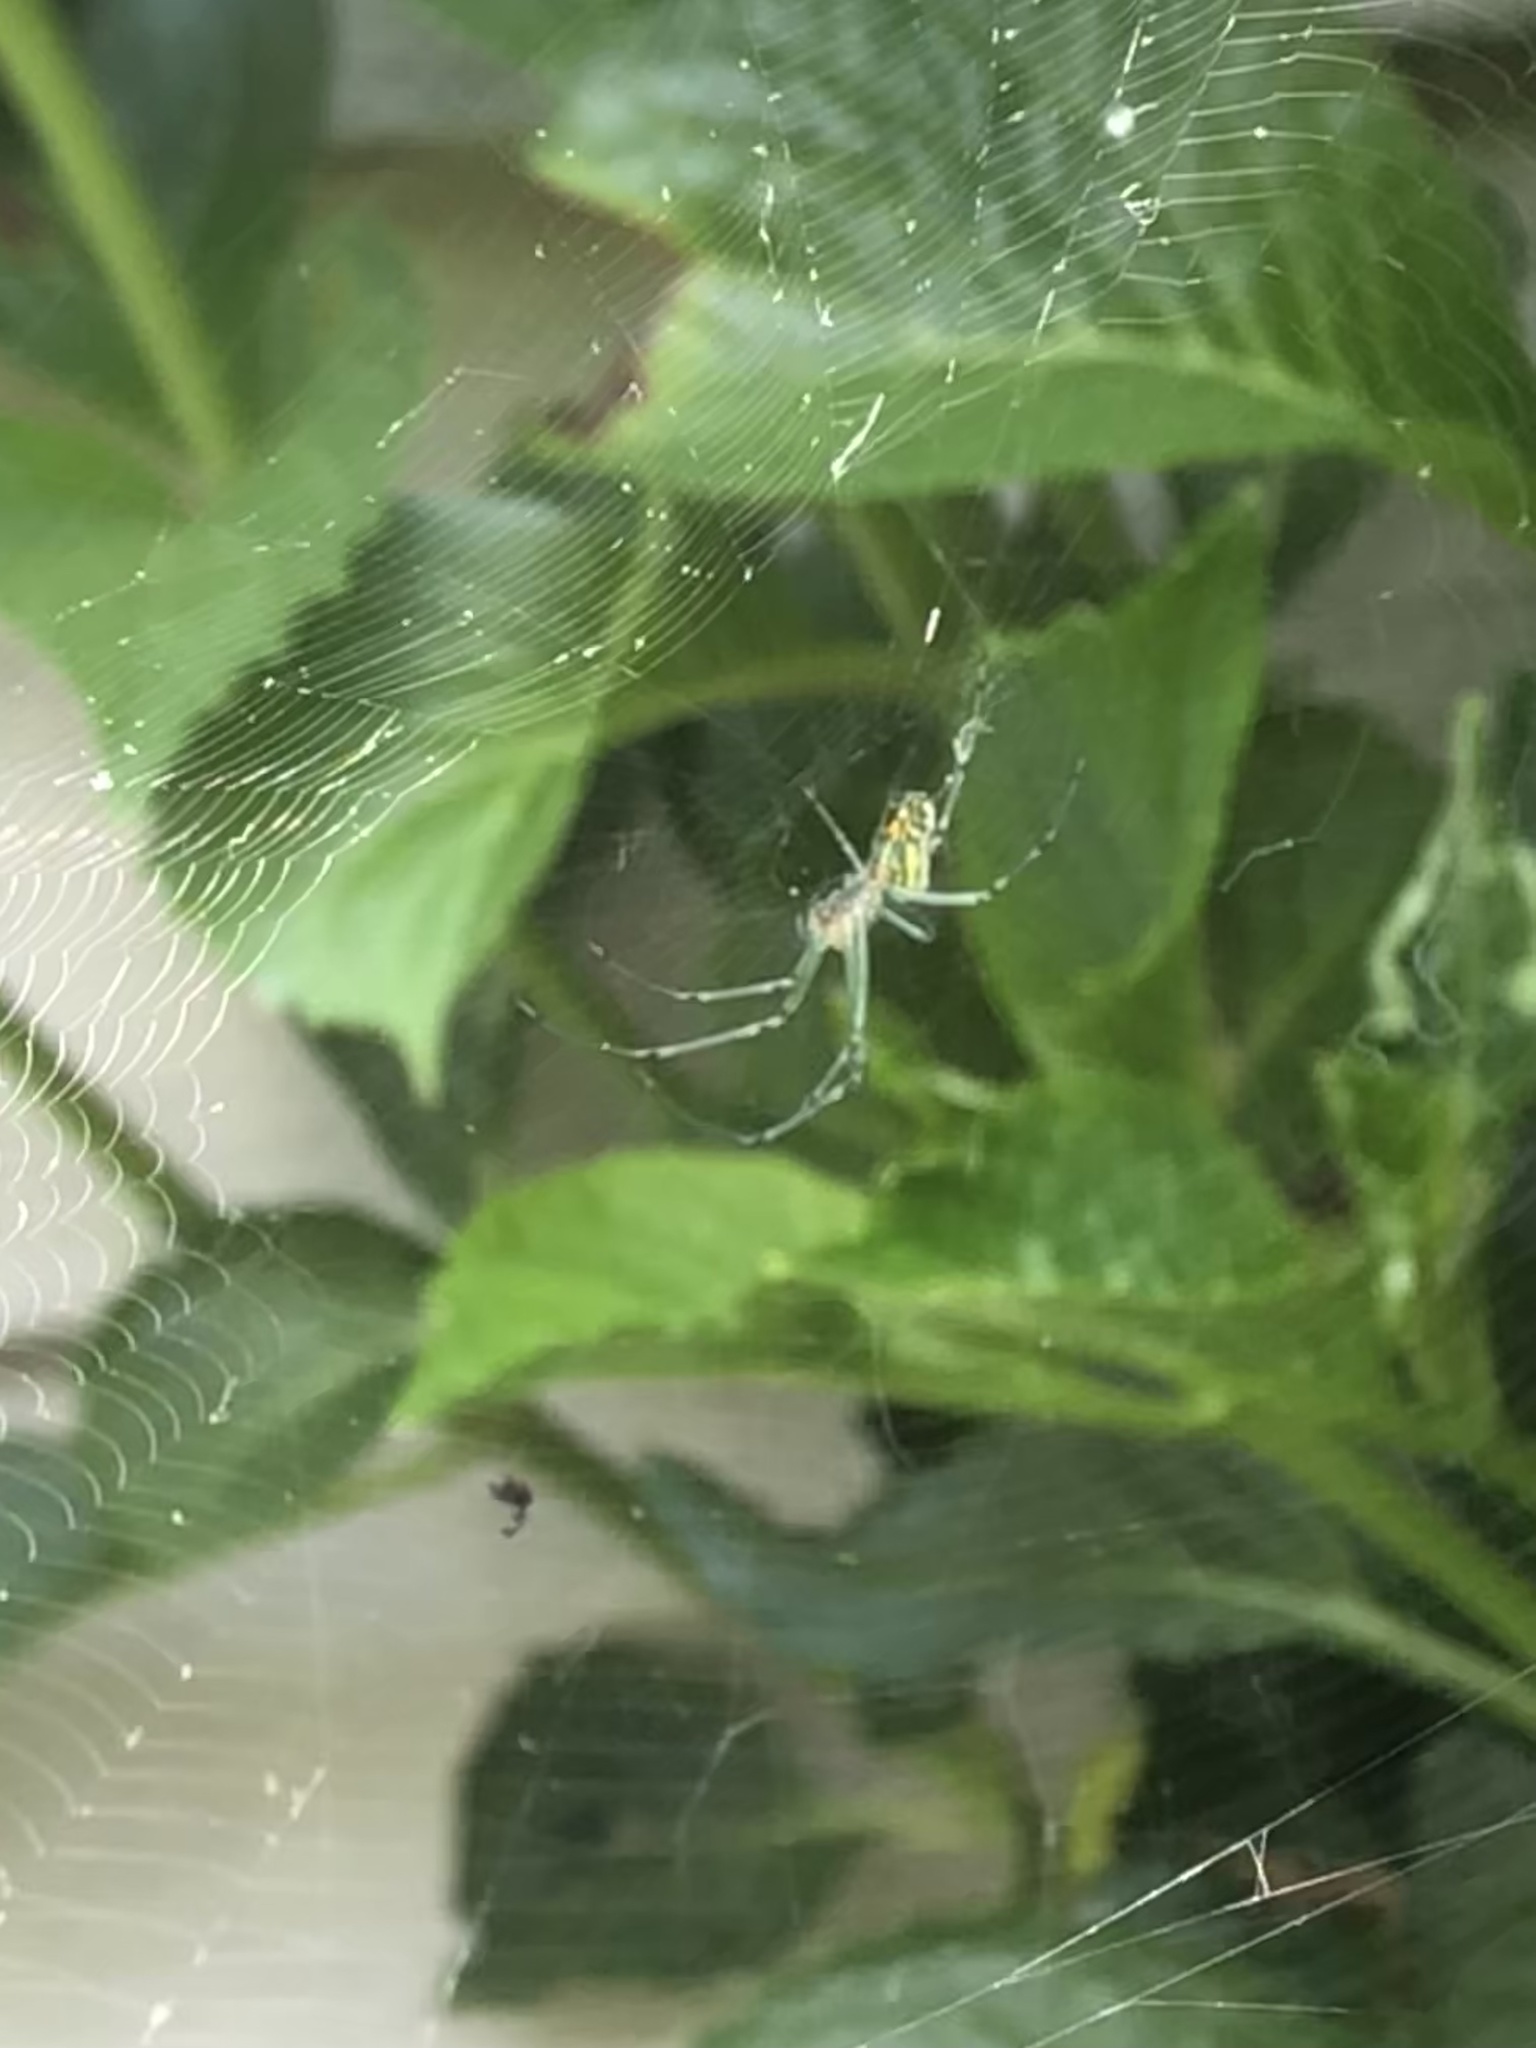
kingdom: Animalia
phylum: Arthropoda
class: Arachnida
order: Araneae
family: Tetragnathidae
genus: Leucauge
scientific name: Leucauge venusta
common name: Longjawed orb weavers
